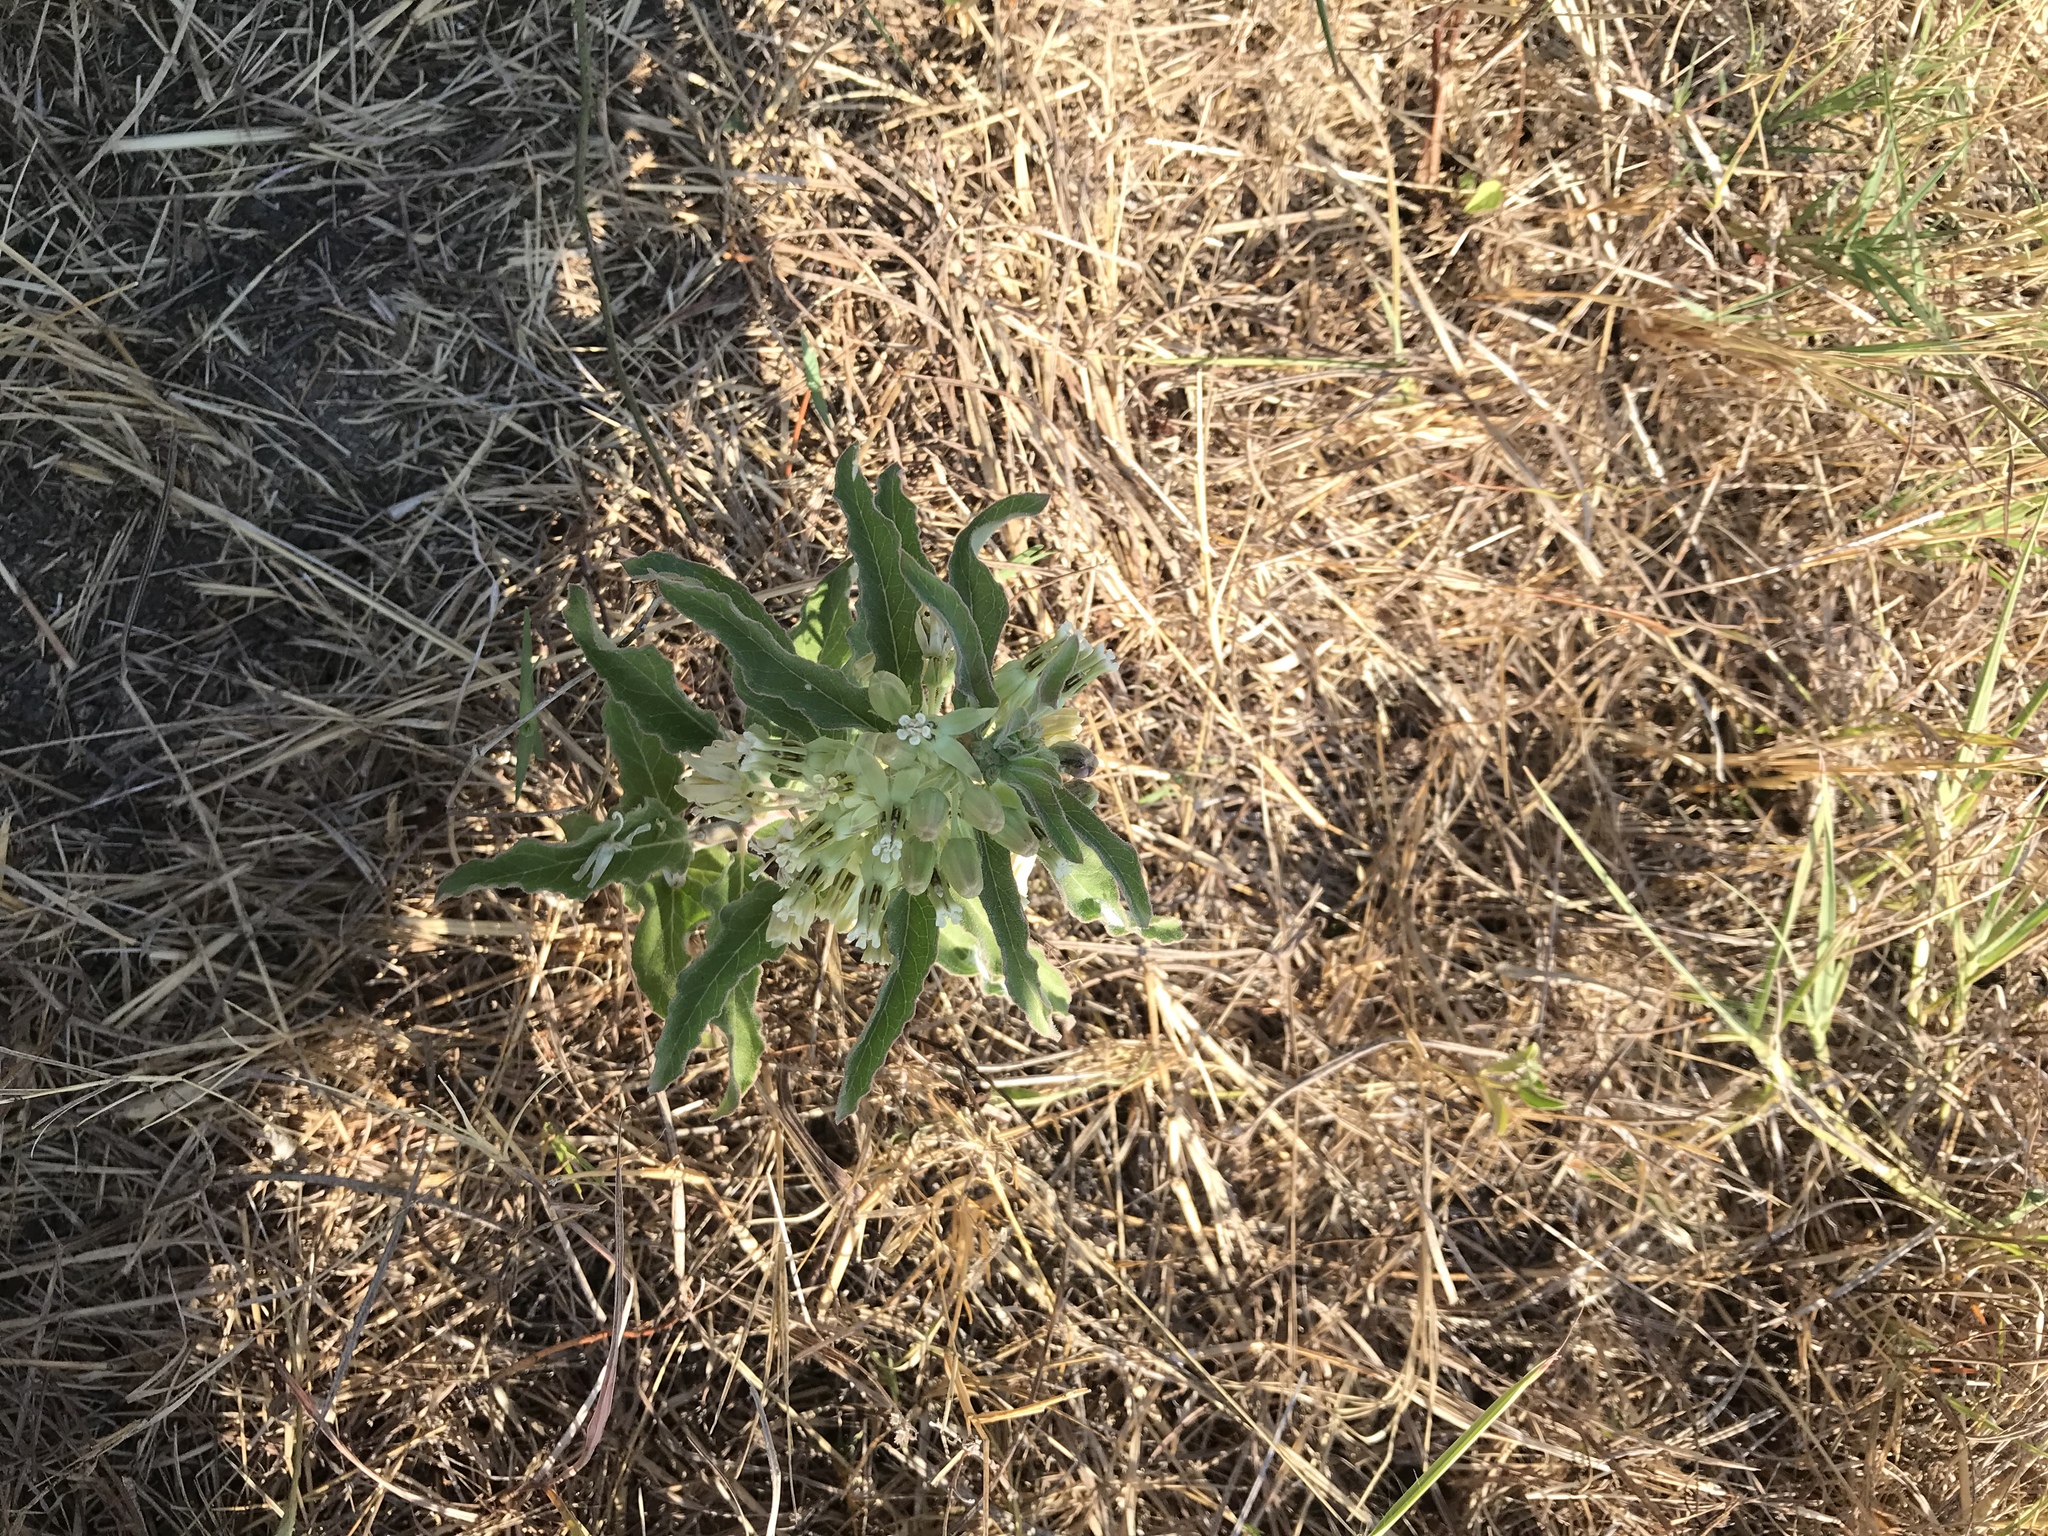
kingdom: Plantae
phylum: Tracheophyta
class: Magnoliopsida
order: Gentianales
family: Apocynaceae
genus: Asclepias
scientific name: Asclepias oenotheroides
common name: Zizotes milkweed
